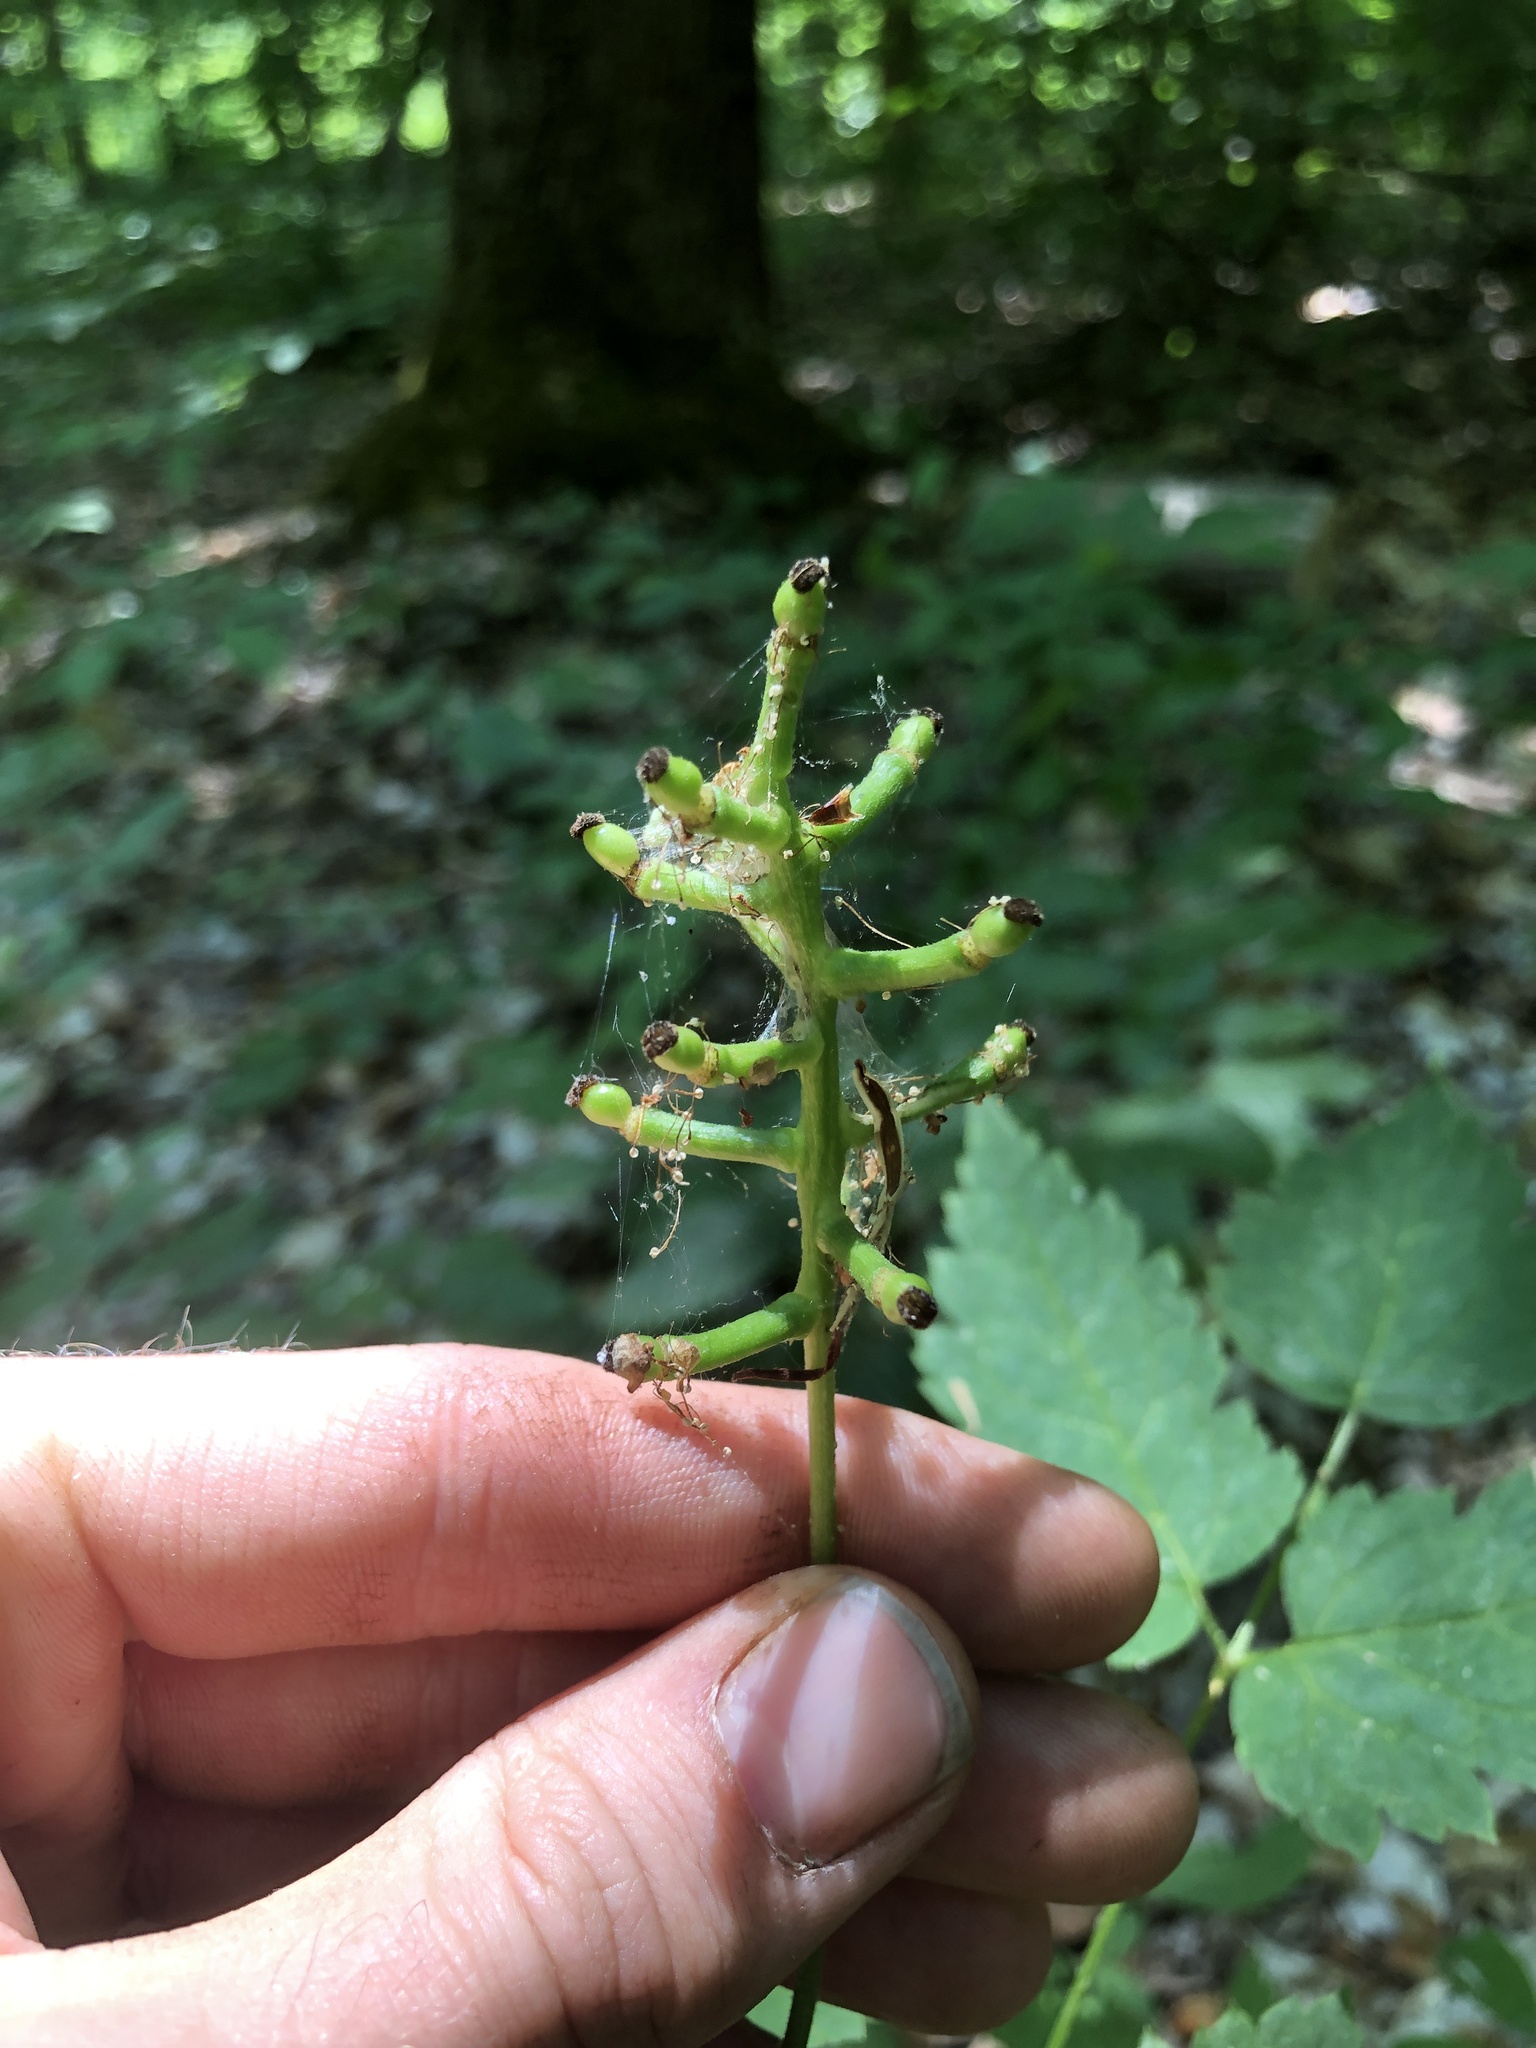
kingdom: Plantae
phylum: Tracheophyta
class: Magnoliopsida
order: Ranunculales
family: Ranunculaceae
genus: Actaea
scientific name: Actaea pachypoda
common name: Doll's-eyes
